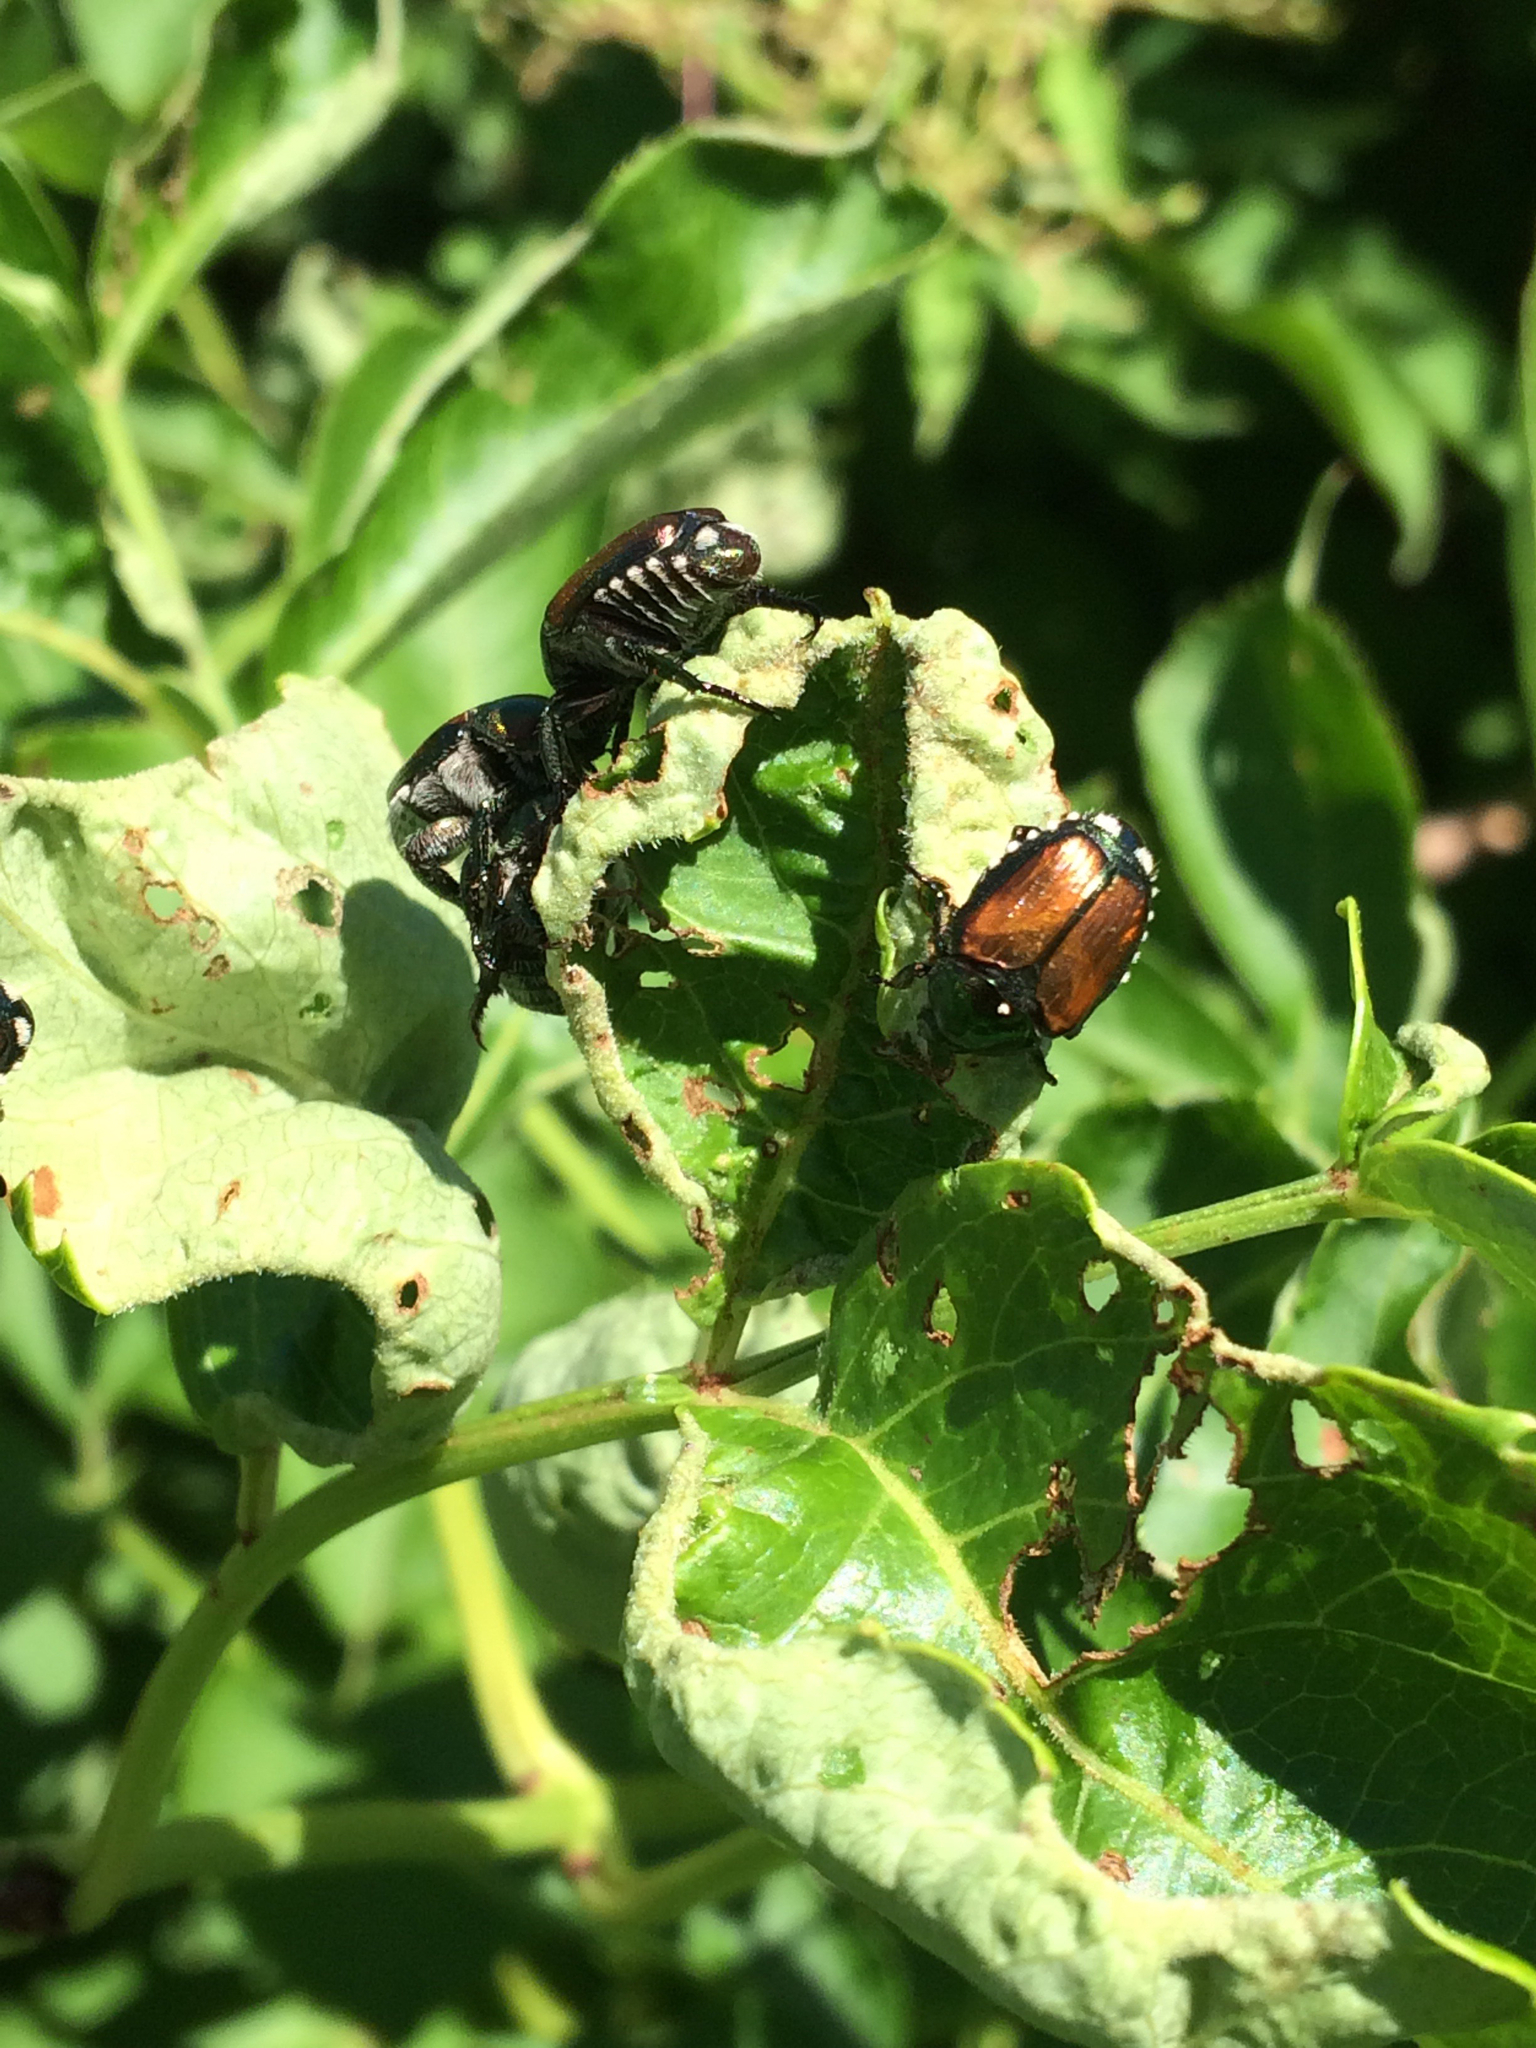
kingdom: Animalia
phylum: Arthropoda
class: Insecta
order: Coleoptera
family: Scarabaeidae
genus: Popillia
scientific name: Popillia japonica
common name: Japanese beetle
